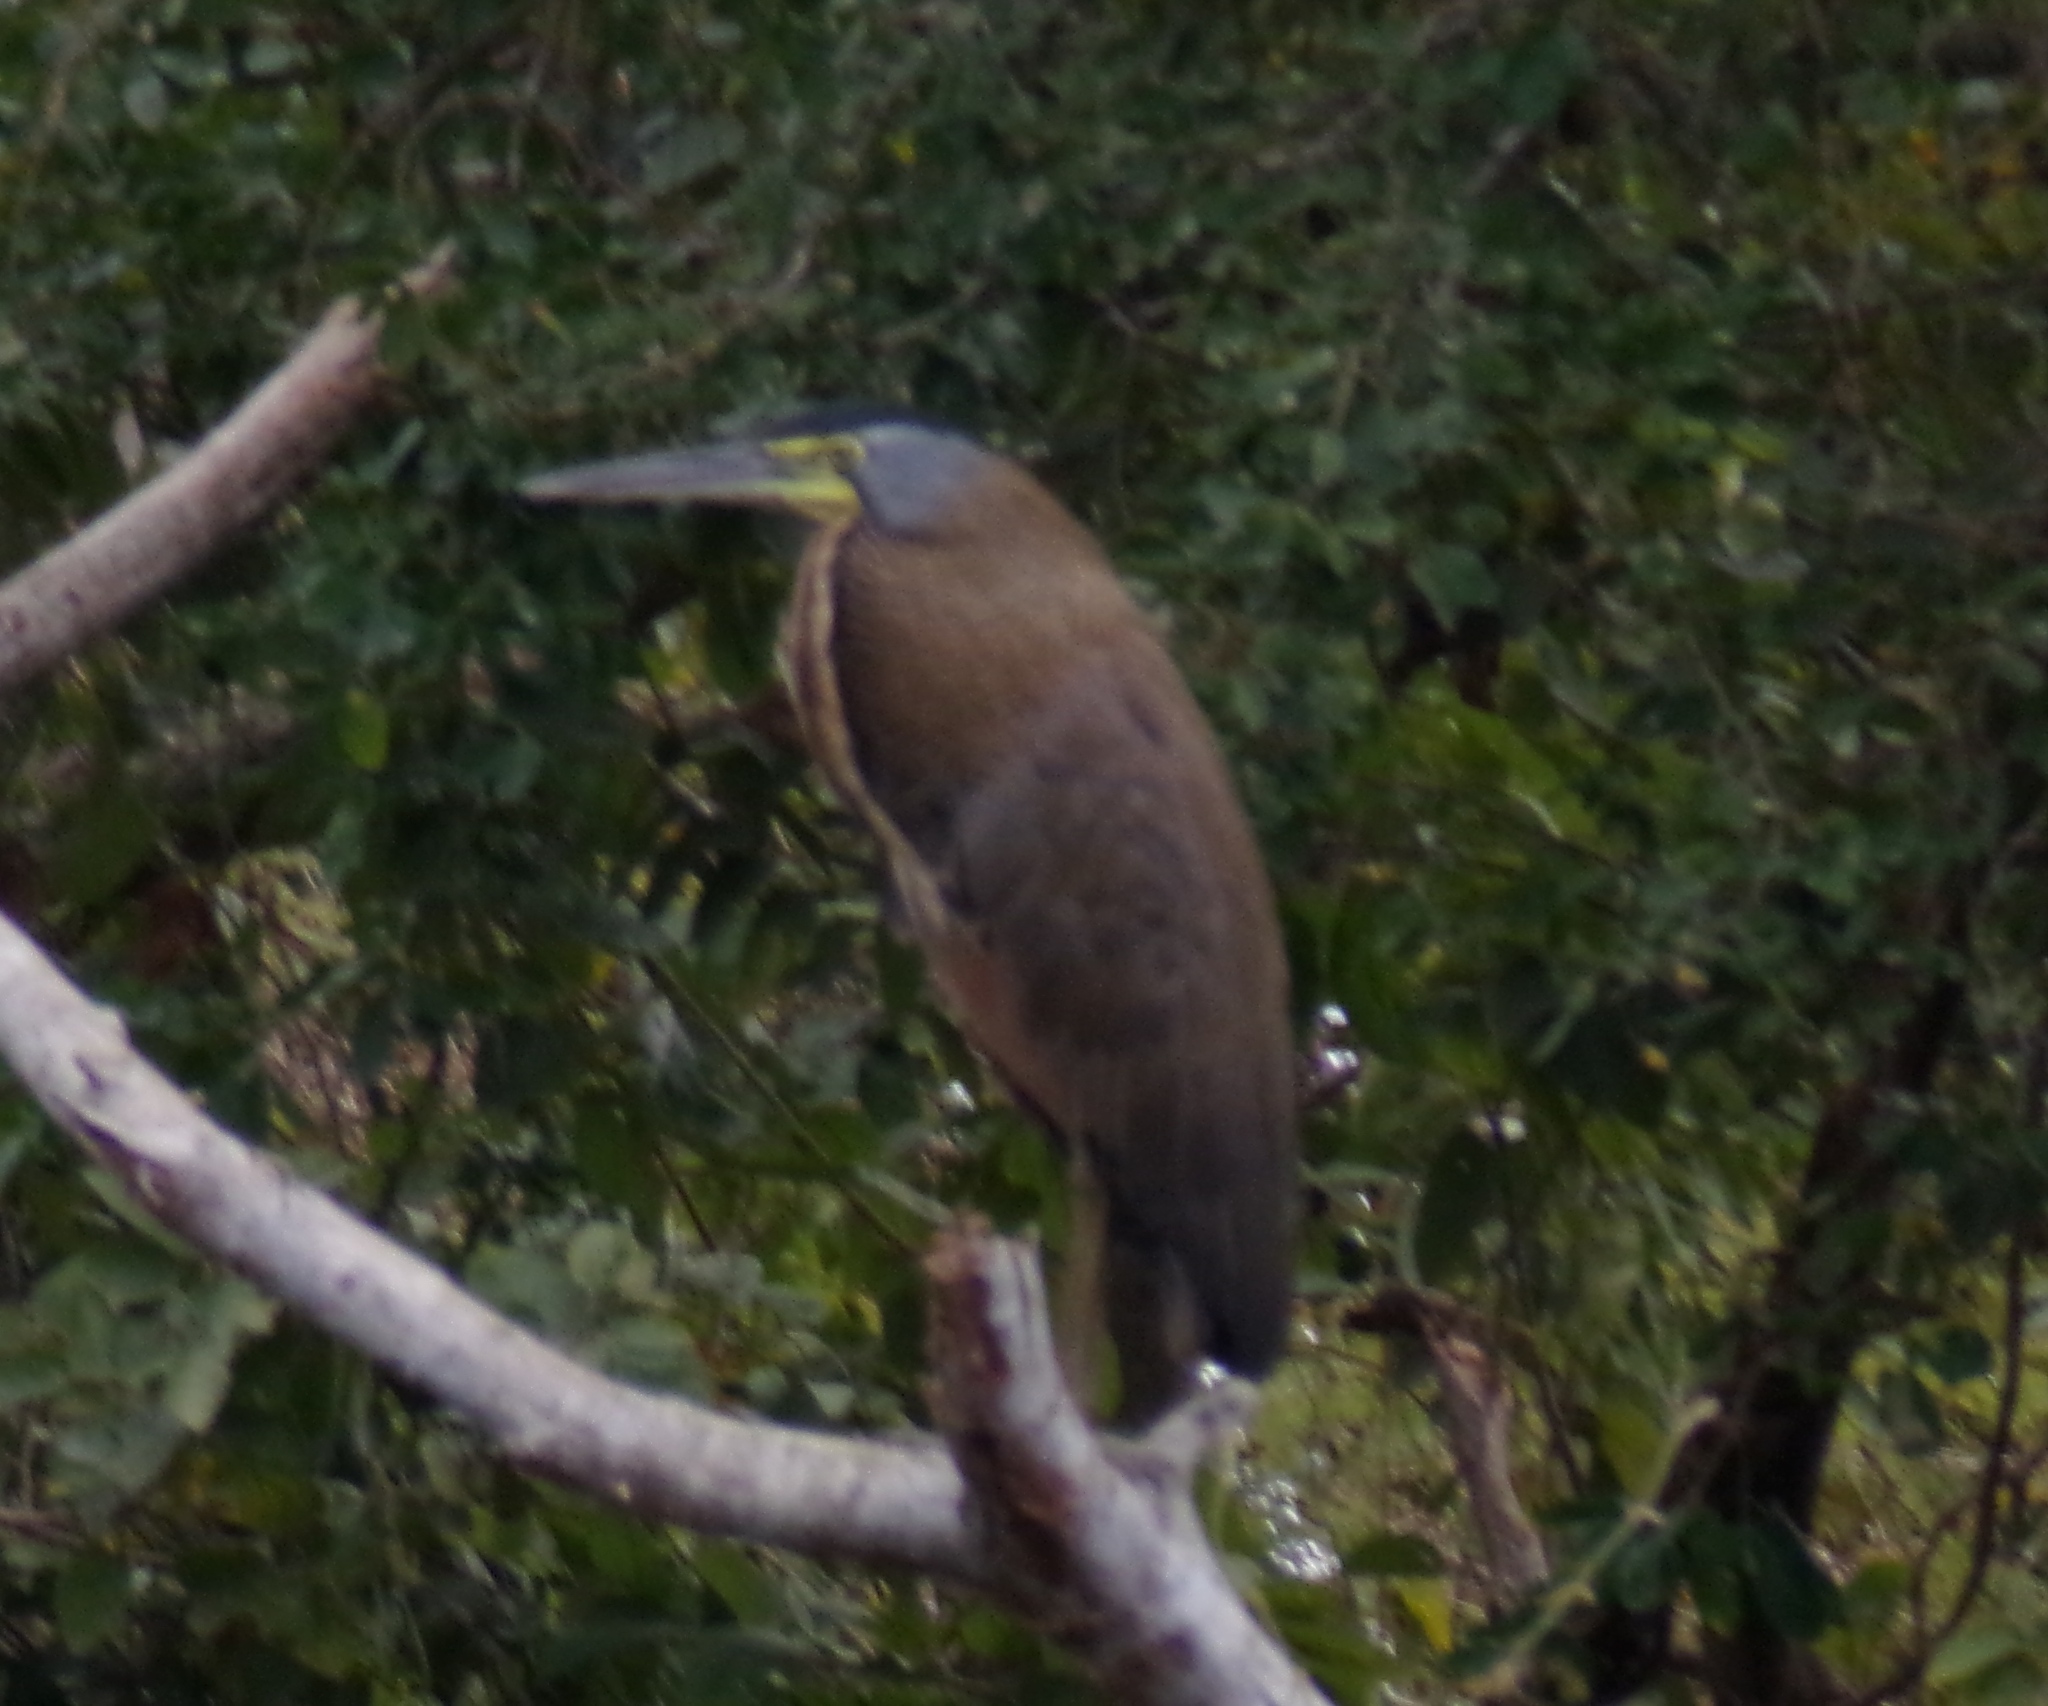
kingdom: Animalia
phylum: Chordata
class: Aves
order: Pelecaniformes
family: Ardeidae
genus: Tigrisoma
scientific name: Tigrisoma mexicanum
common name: Bare-throated tiger-heron
